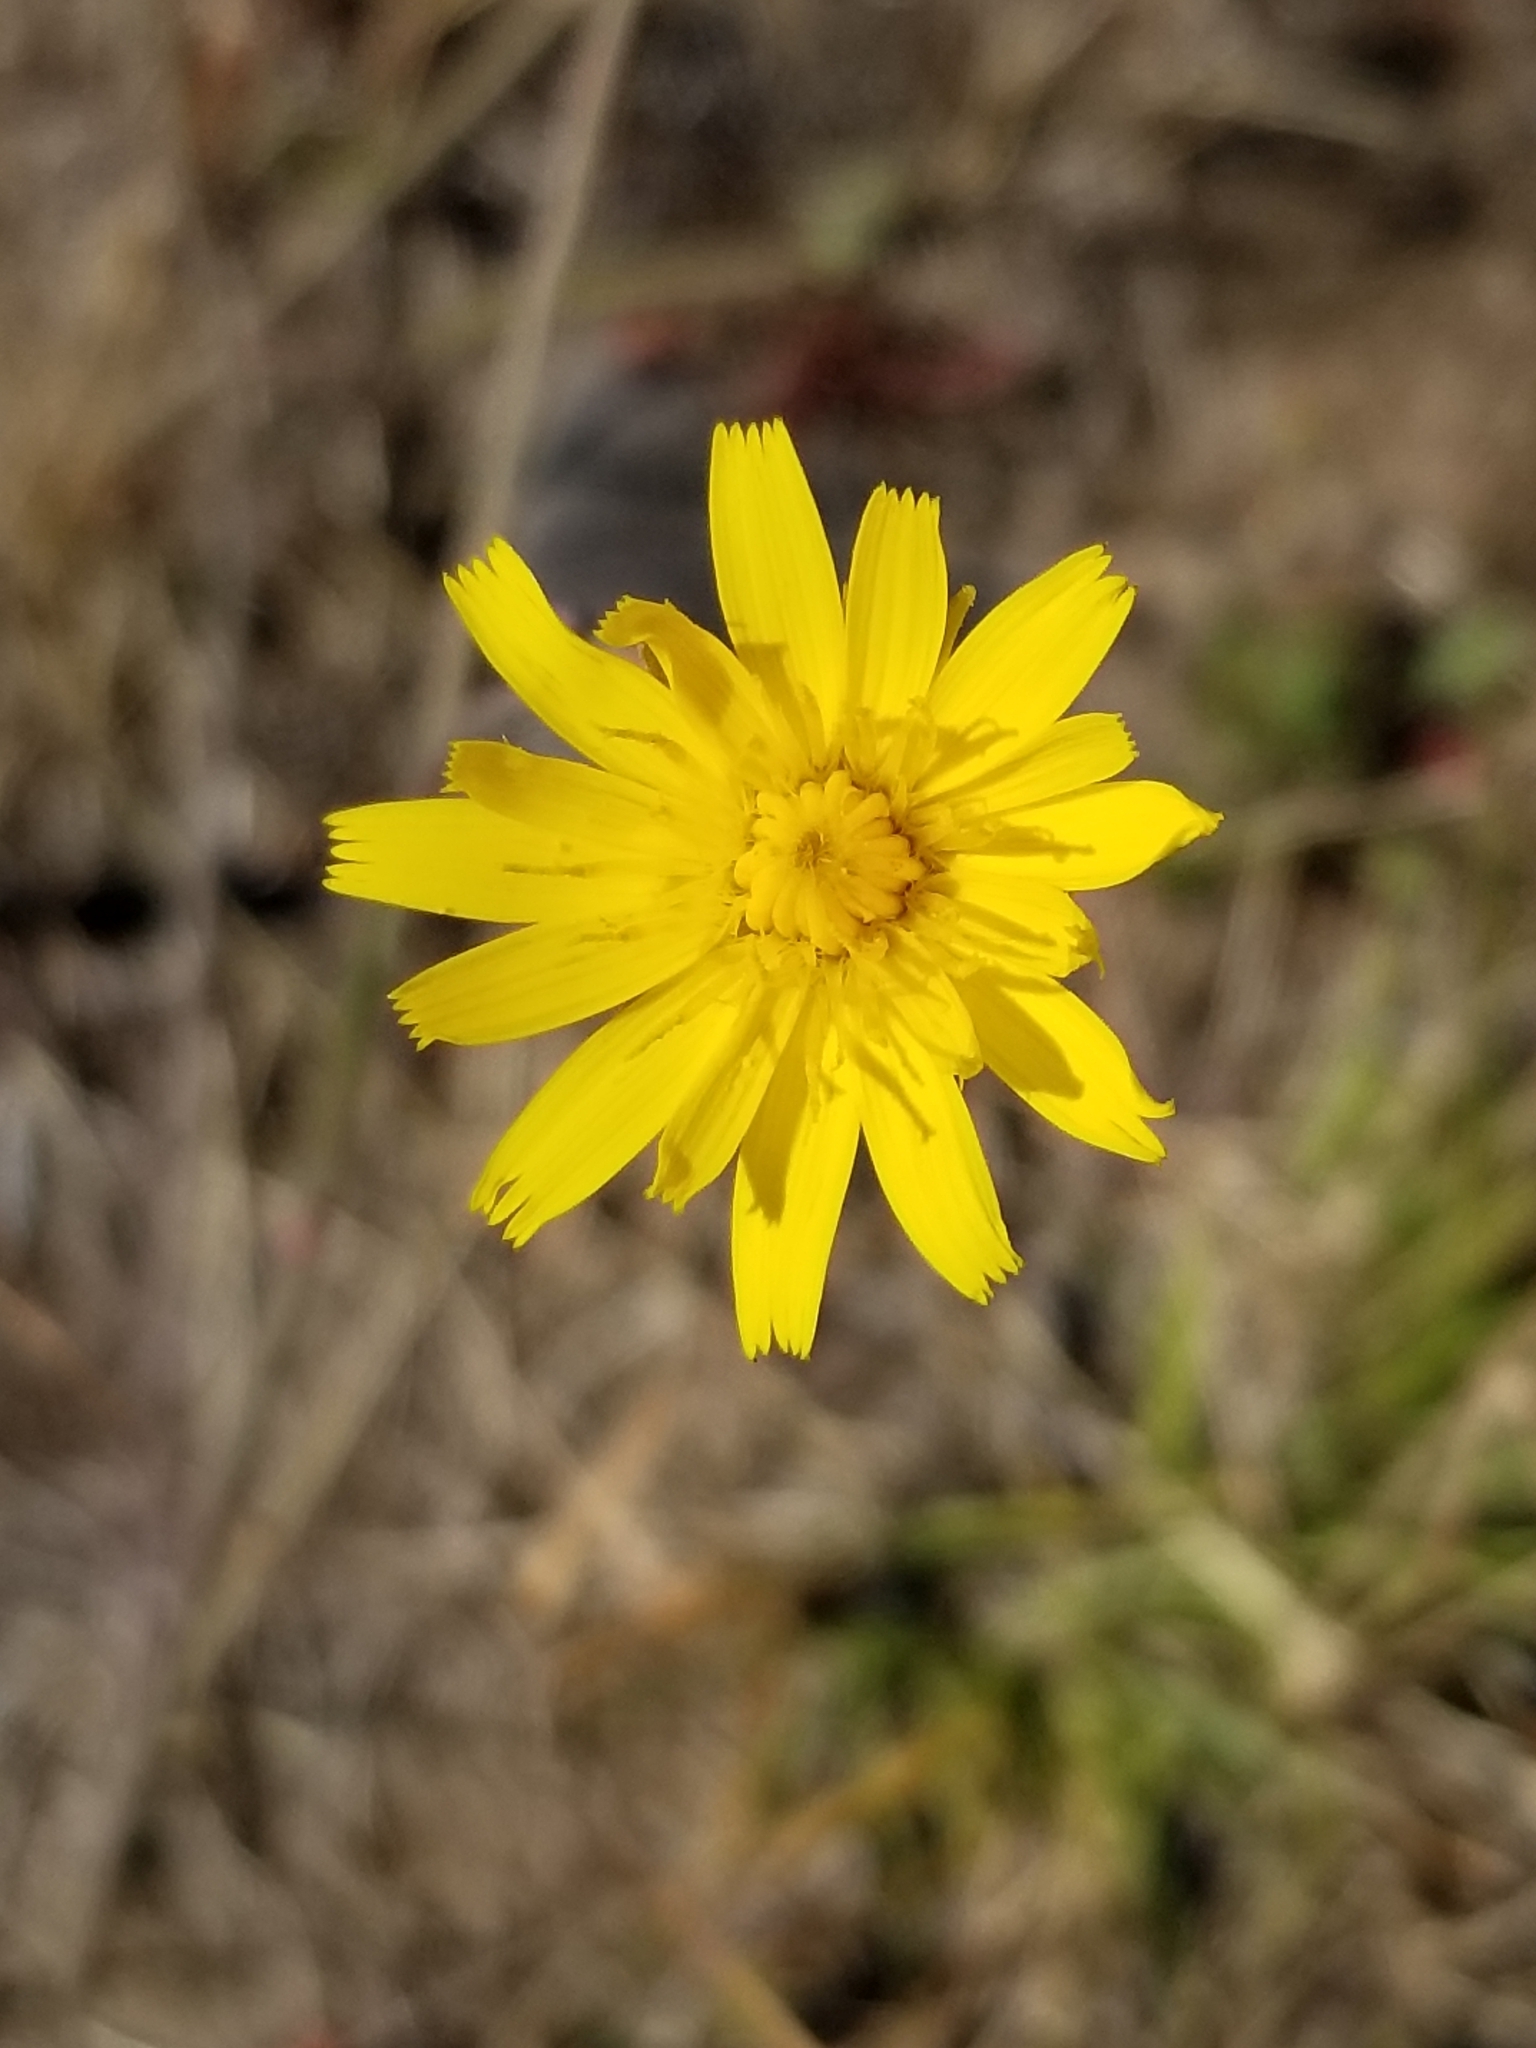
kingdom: Plantae
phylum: Tracheophyta
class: Magnoliopsida
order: Asterales
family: Asteraceae
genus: Hypochaeris
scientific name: Hypochaeris radicata
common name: Flatweed
